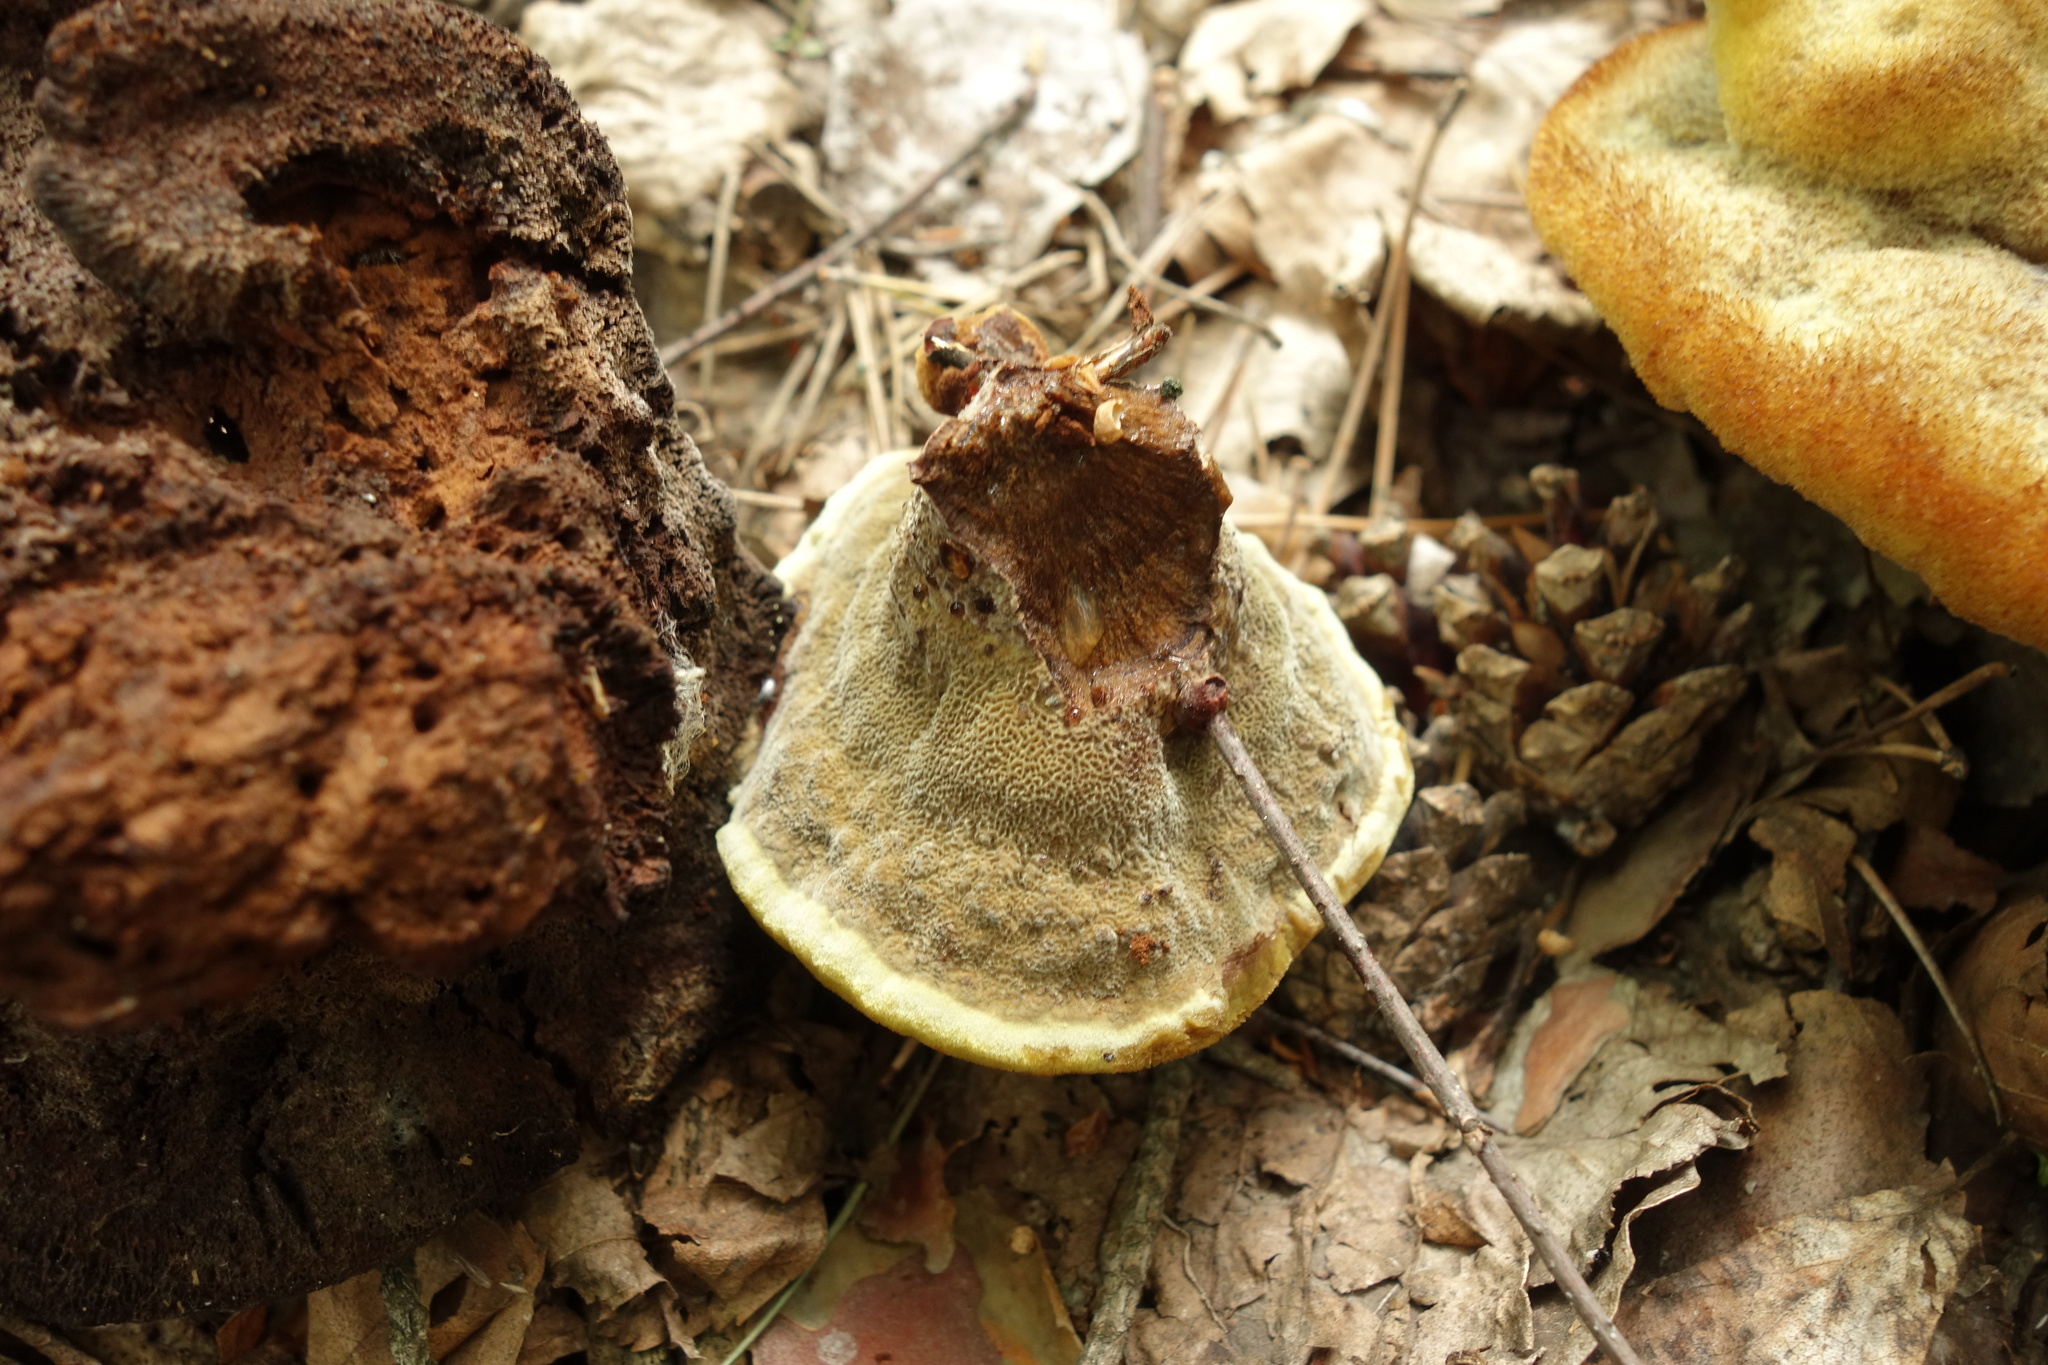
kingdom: Fungi
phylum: Basidiomycota
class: Agaricomycetes
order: Polyporales
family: Laetiporaceae
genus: Phaeolus
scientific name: Phaeolus schweinitzii
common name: Dyer's mazegill
